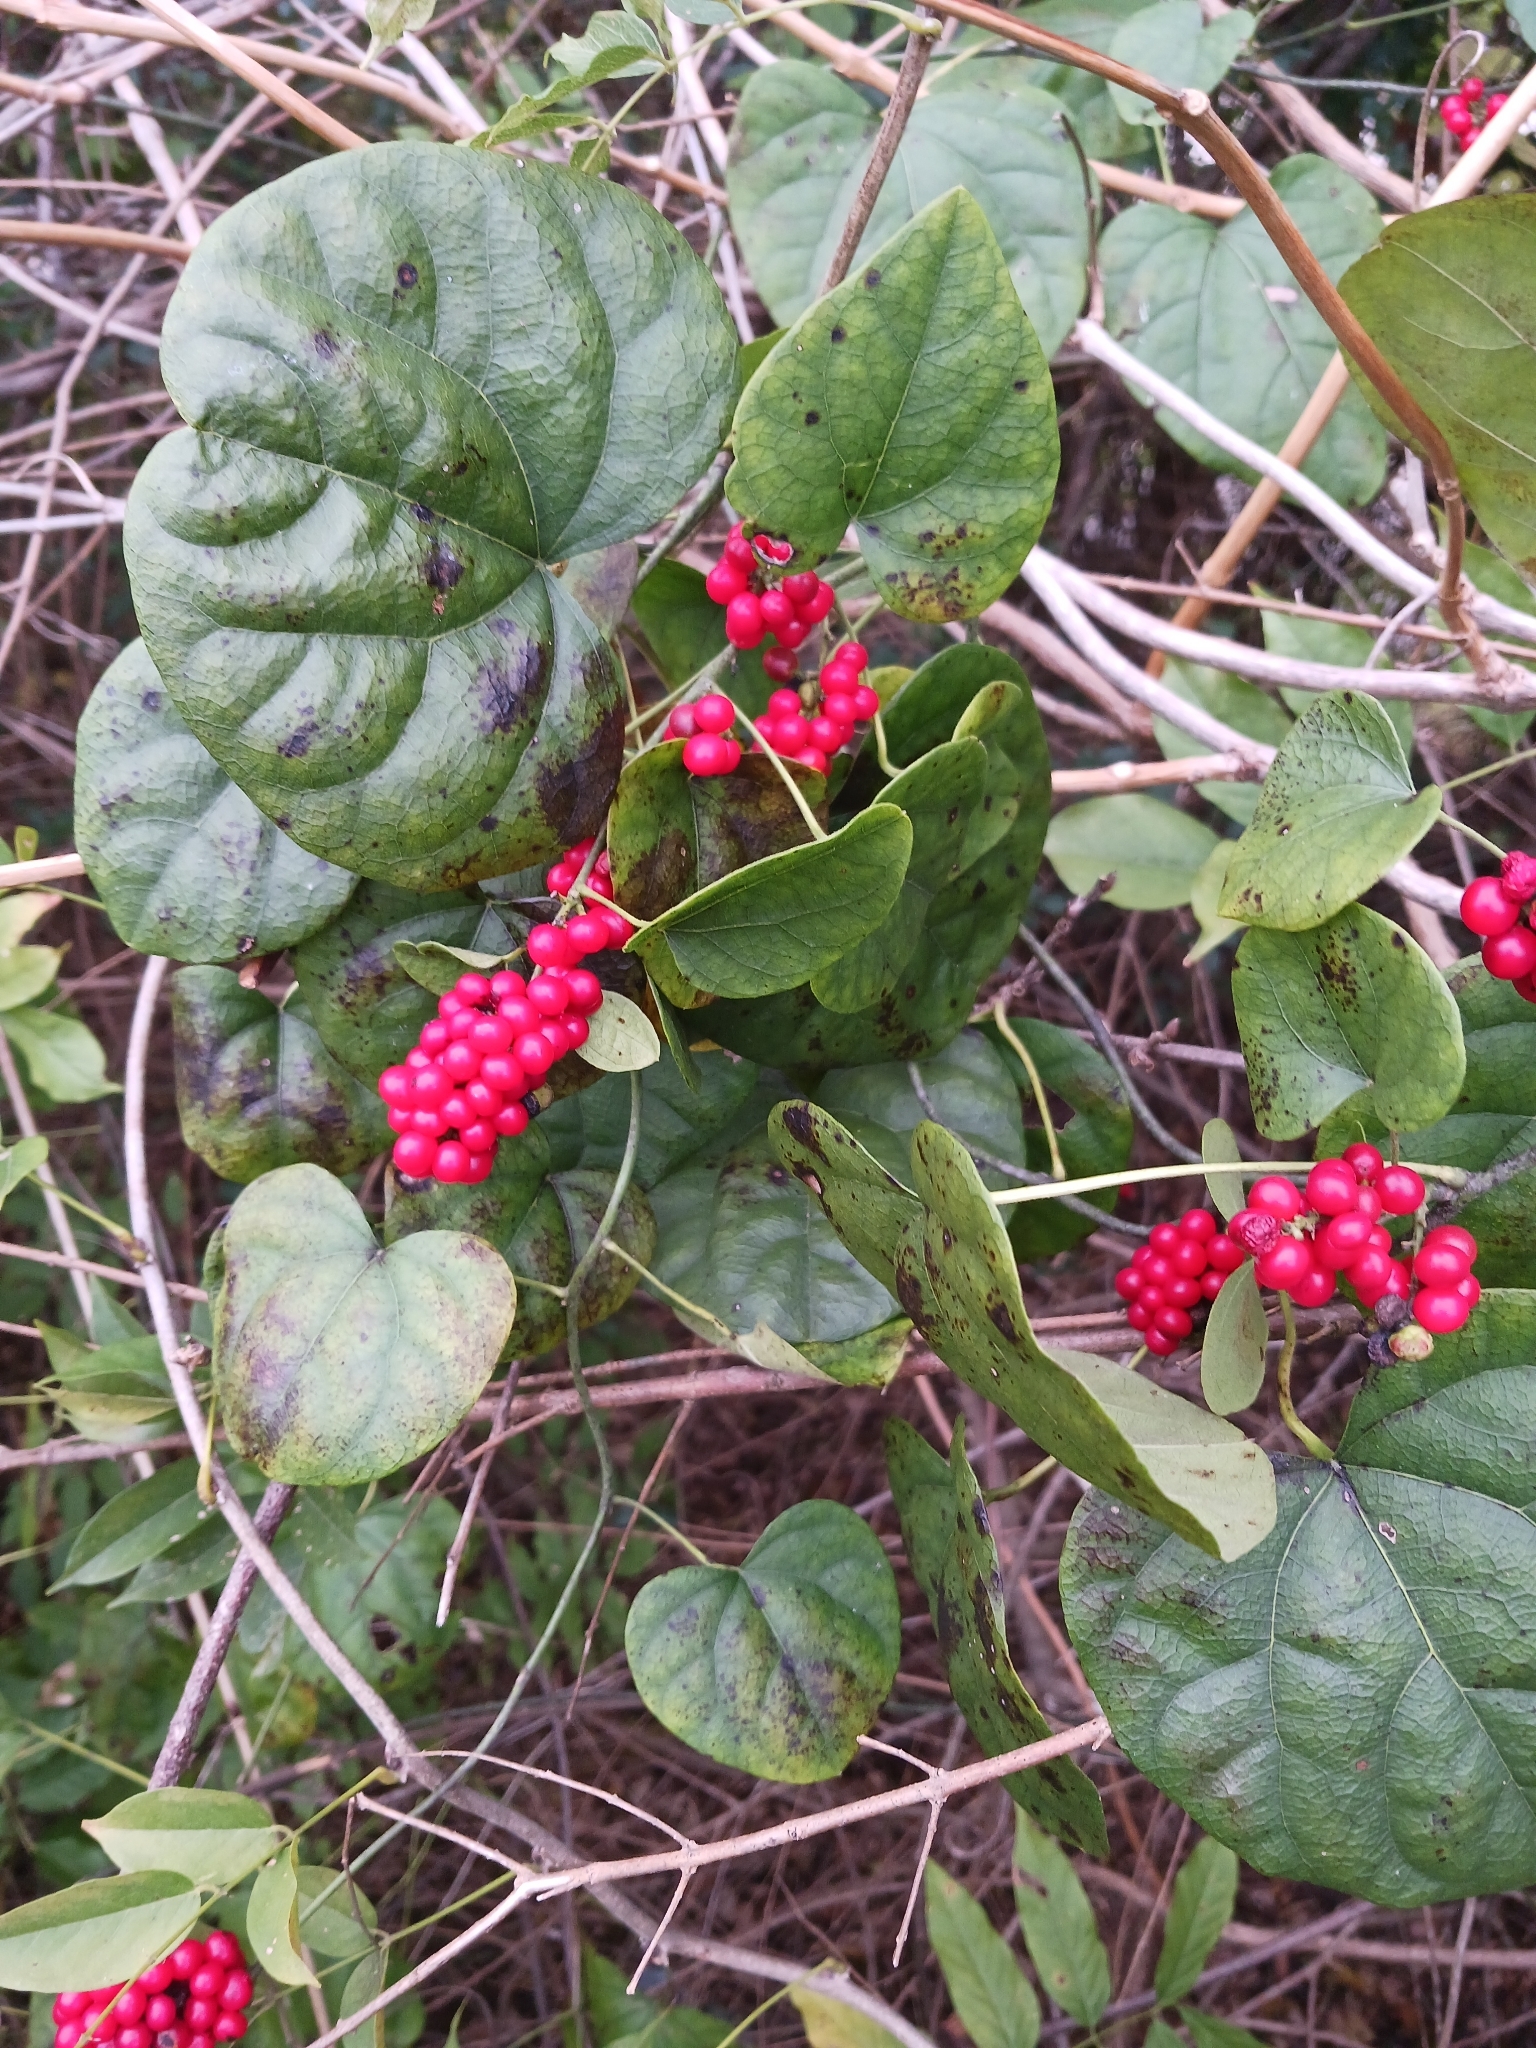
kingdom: Plantae
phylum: Tracheophyta
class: Magnoliopsida
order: Ranunculales
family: Menispermaceae
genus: Cocculus
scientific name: Cocculus carolinus
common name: Carolina moonseed
